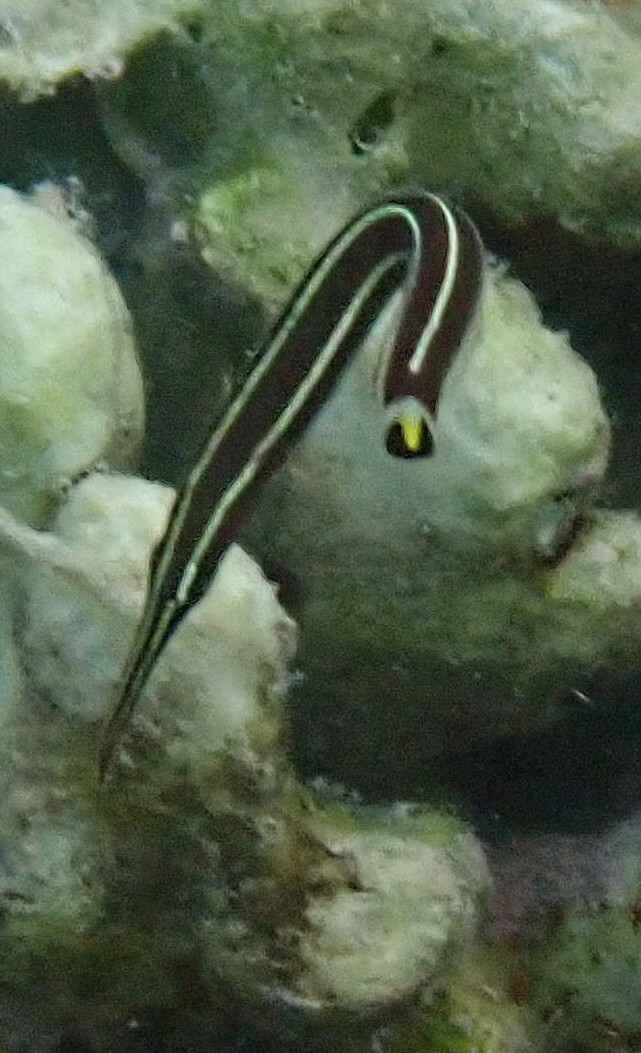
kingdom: Animalia
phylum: Chordata
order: Gobiesociformes
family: Gobiesocidae
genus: Diademichthys
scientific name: Diademichthys lineatus
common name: Urchin clingfish
